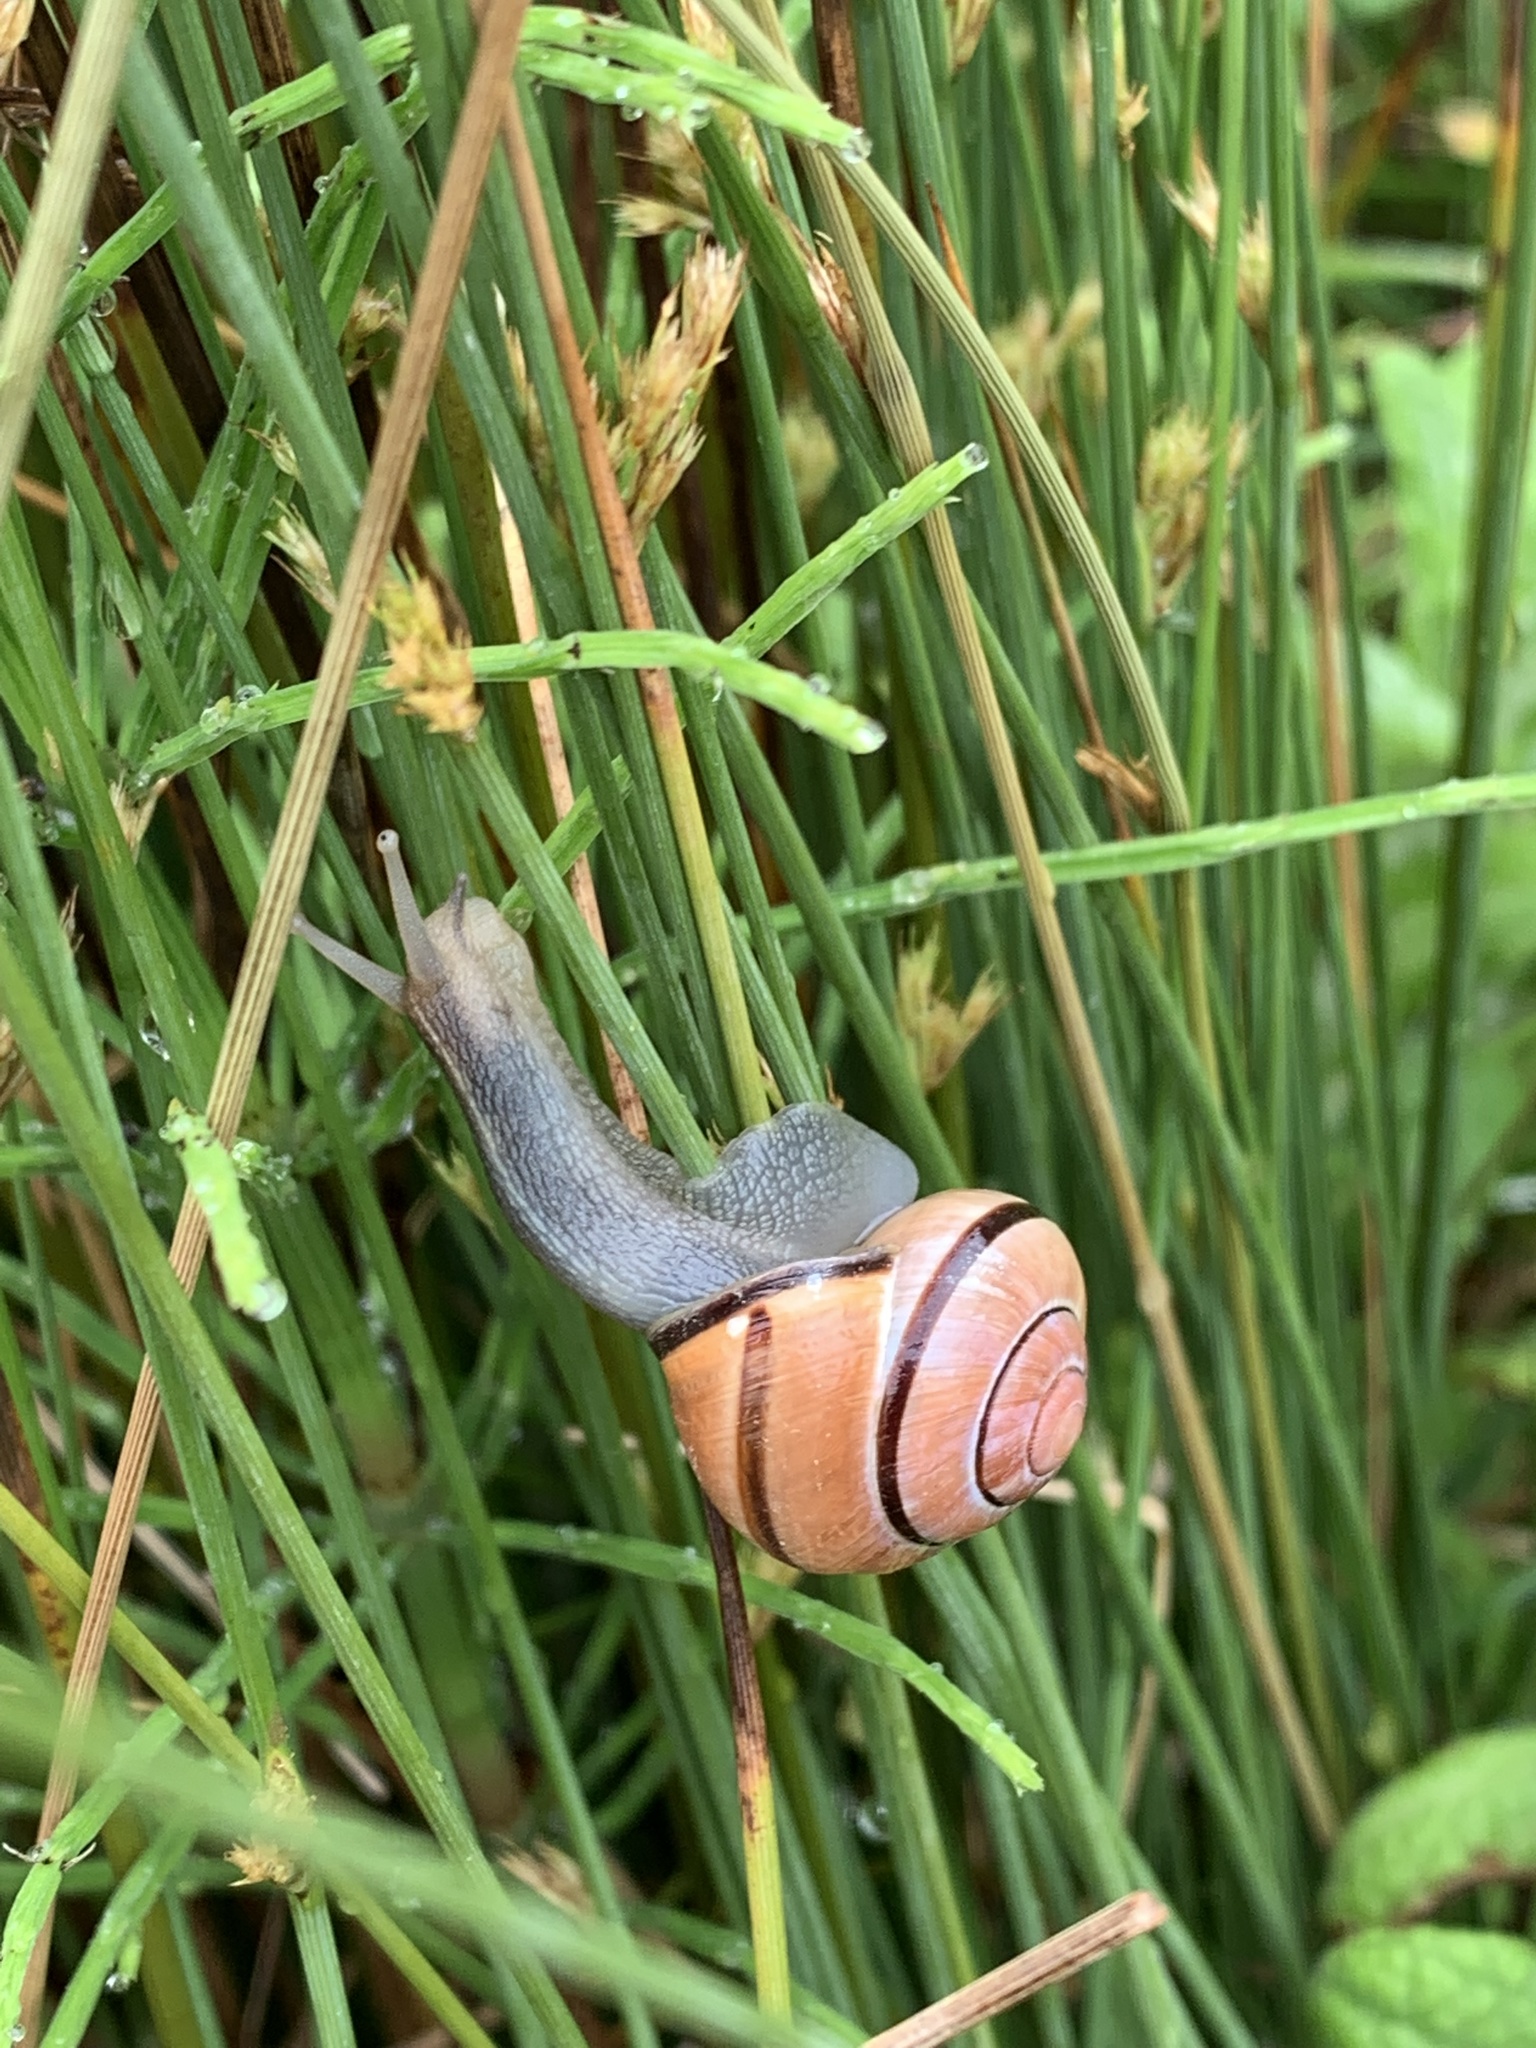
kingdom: Animalia
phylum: Mollusca
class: Gastropoda
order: Stylommatophora
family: Helicidae
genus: Cepaea
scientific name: Cepaea nemoralis
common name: Grovesnail
